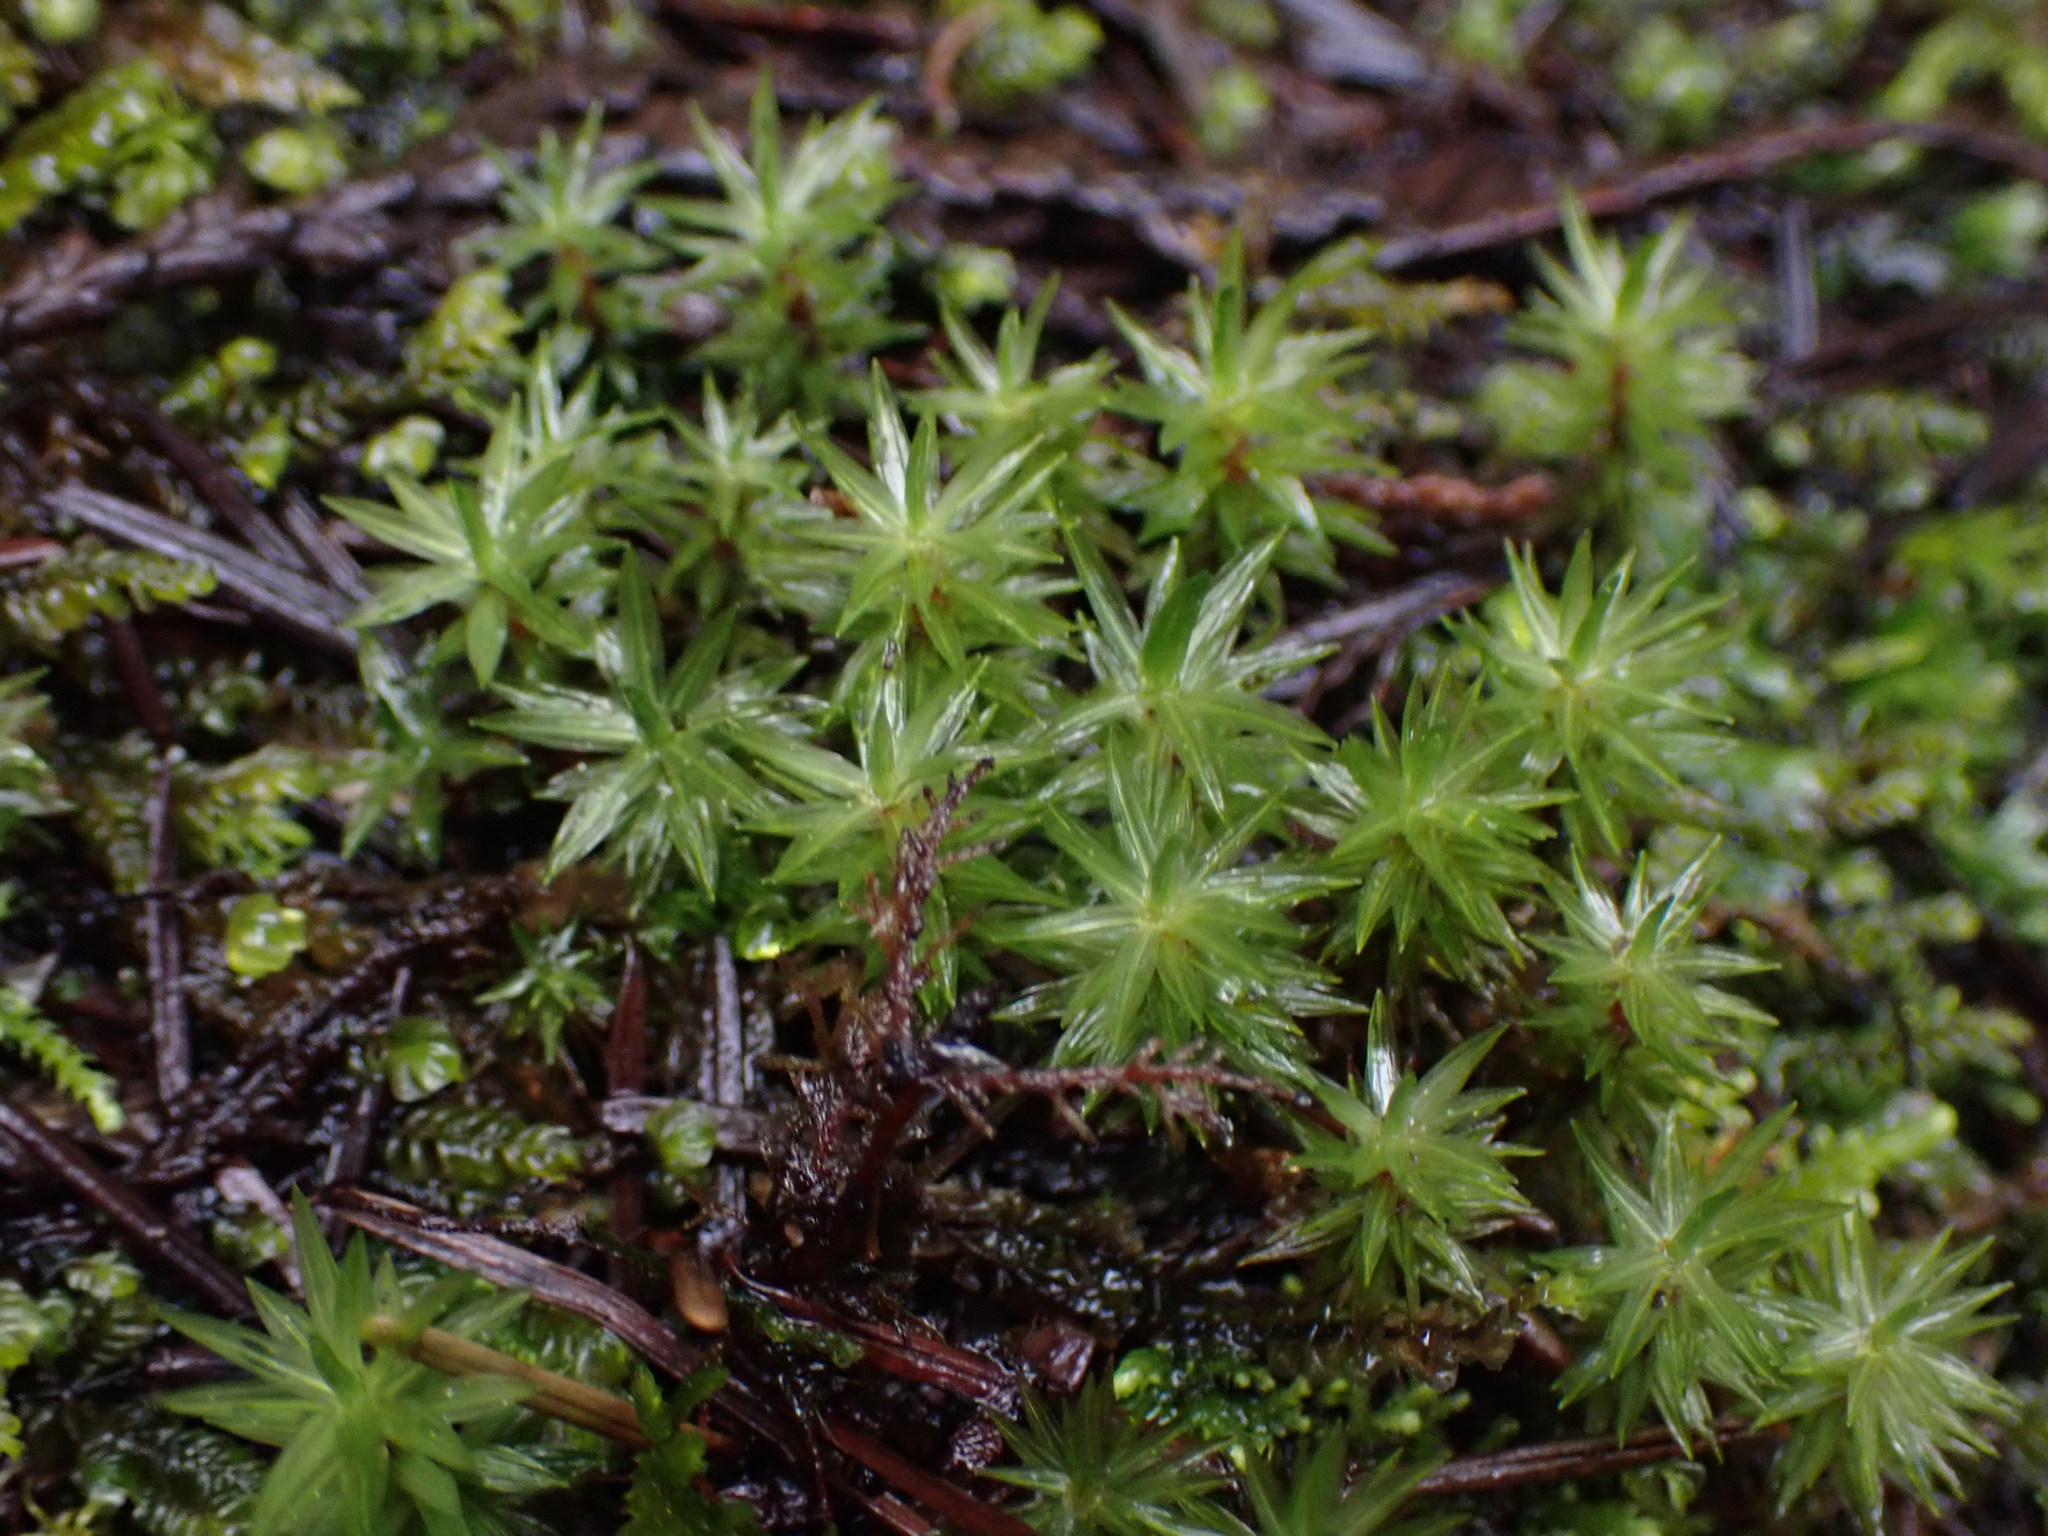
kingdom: Plantae
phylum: Bryophyta
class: Bryopsida
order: Timmiales
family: Timmiaceae
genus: Timmia
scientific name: Timmia austriaca
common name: Austrian timmia
